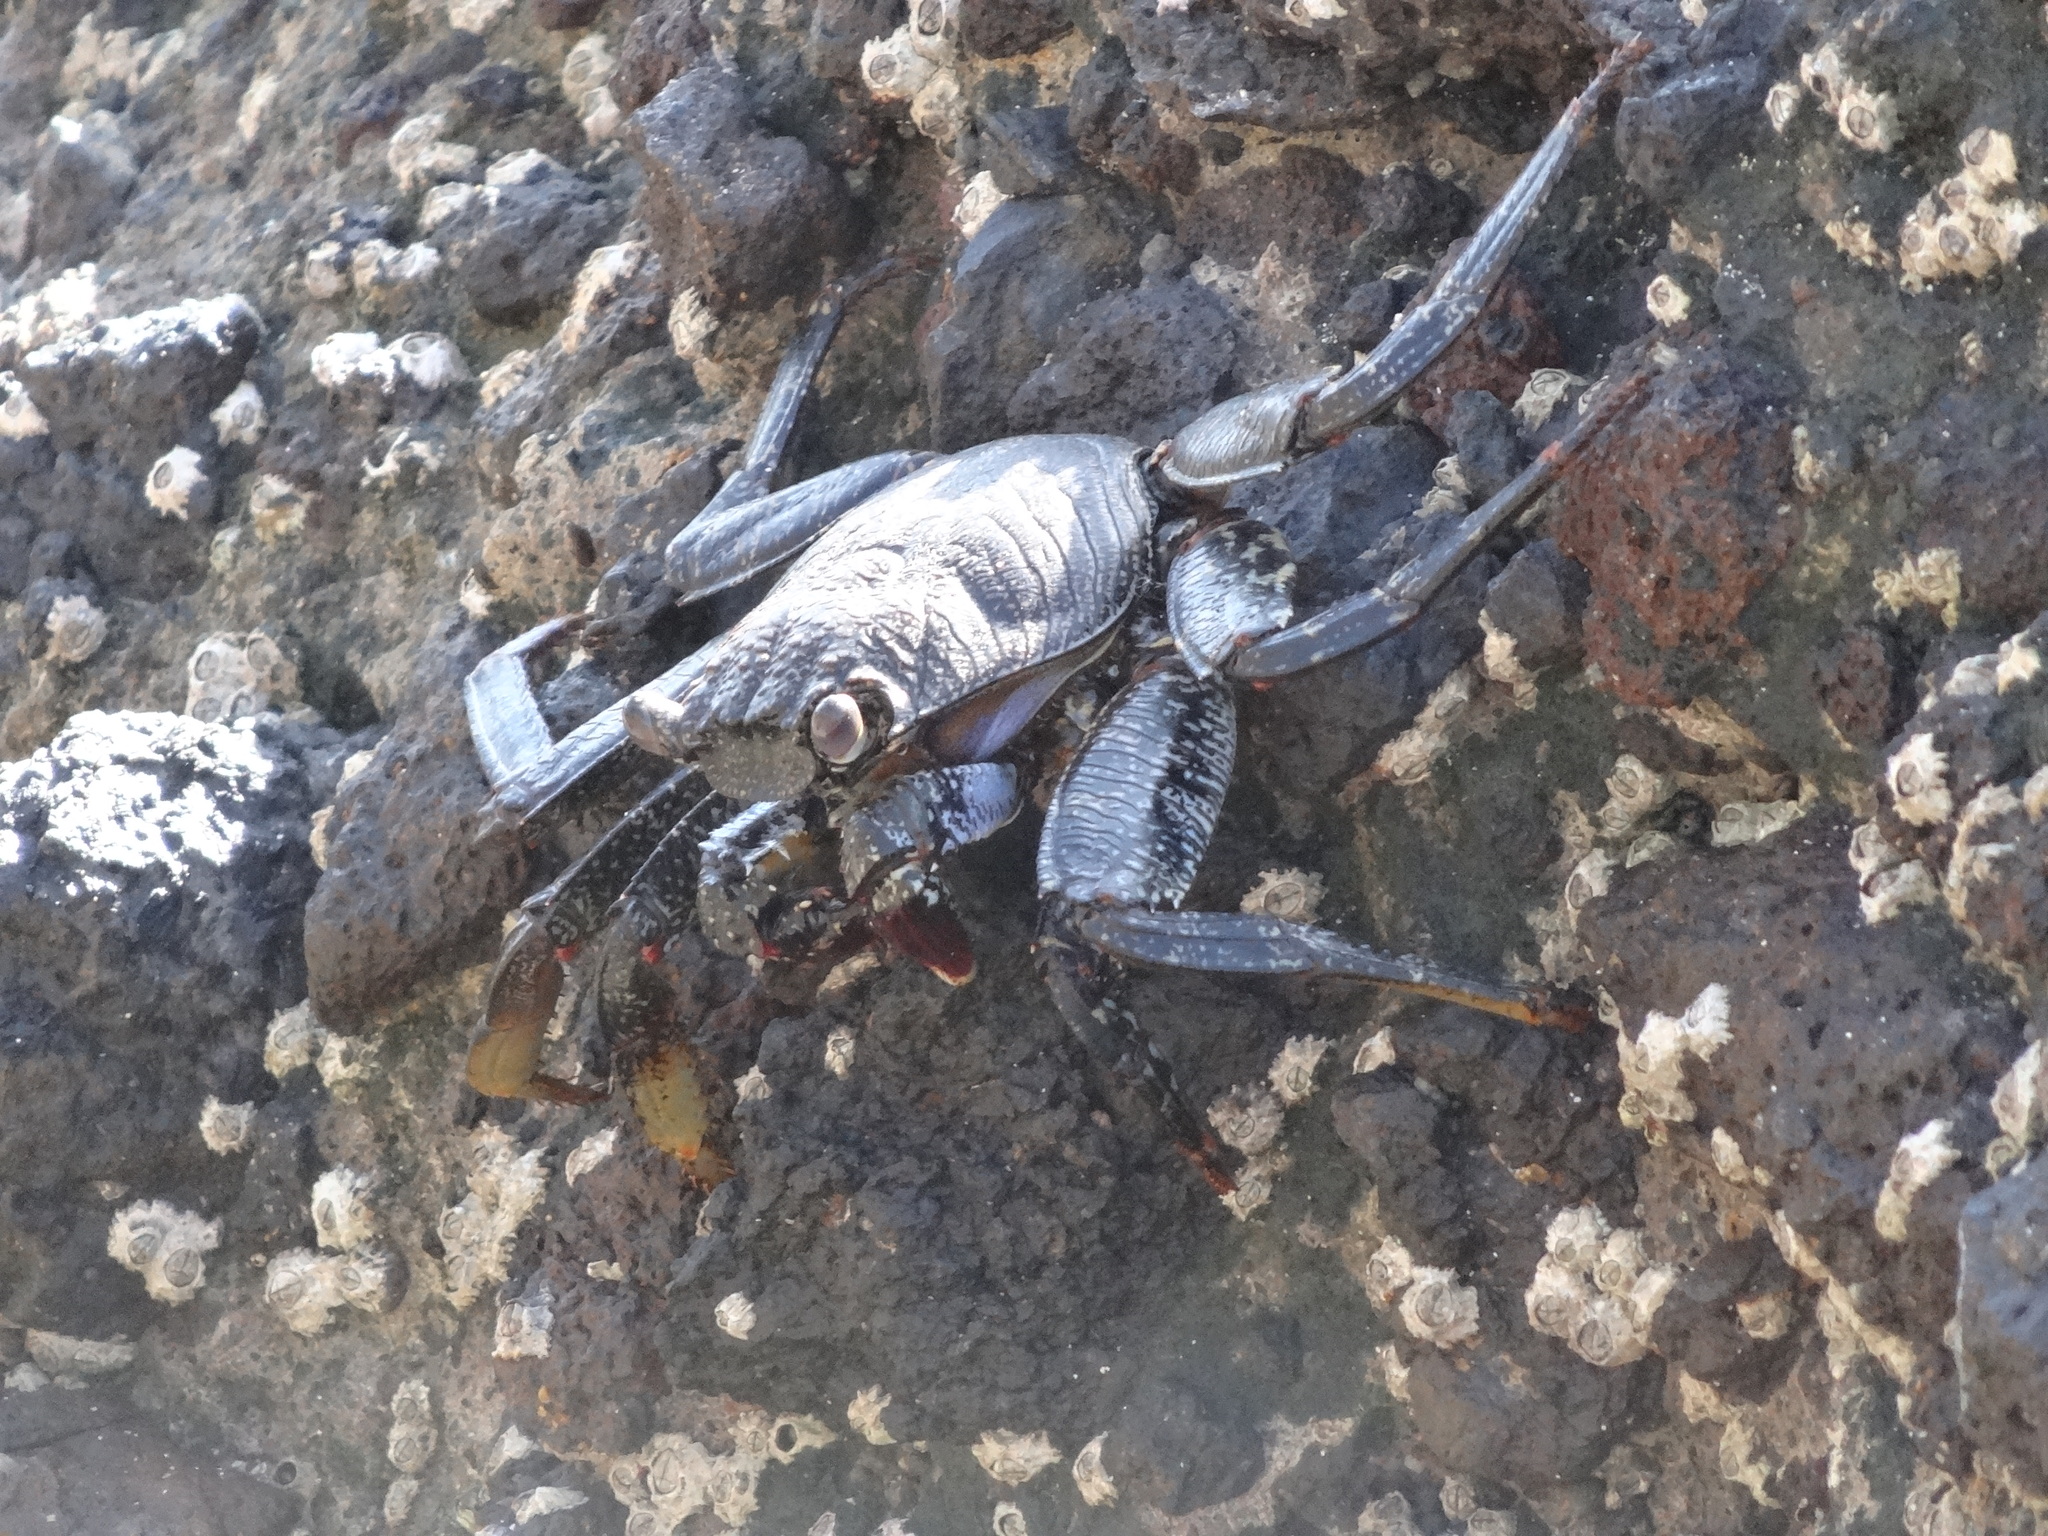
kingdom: Animalia
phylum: Arthropoda
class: Malacostraca
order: Decapoda
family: Grapsidae
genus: Grapsus
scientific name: Grapsus adscensionis
